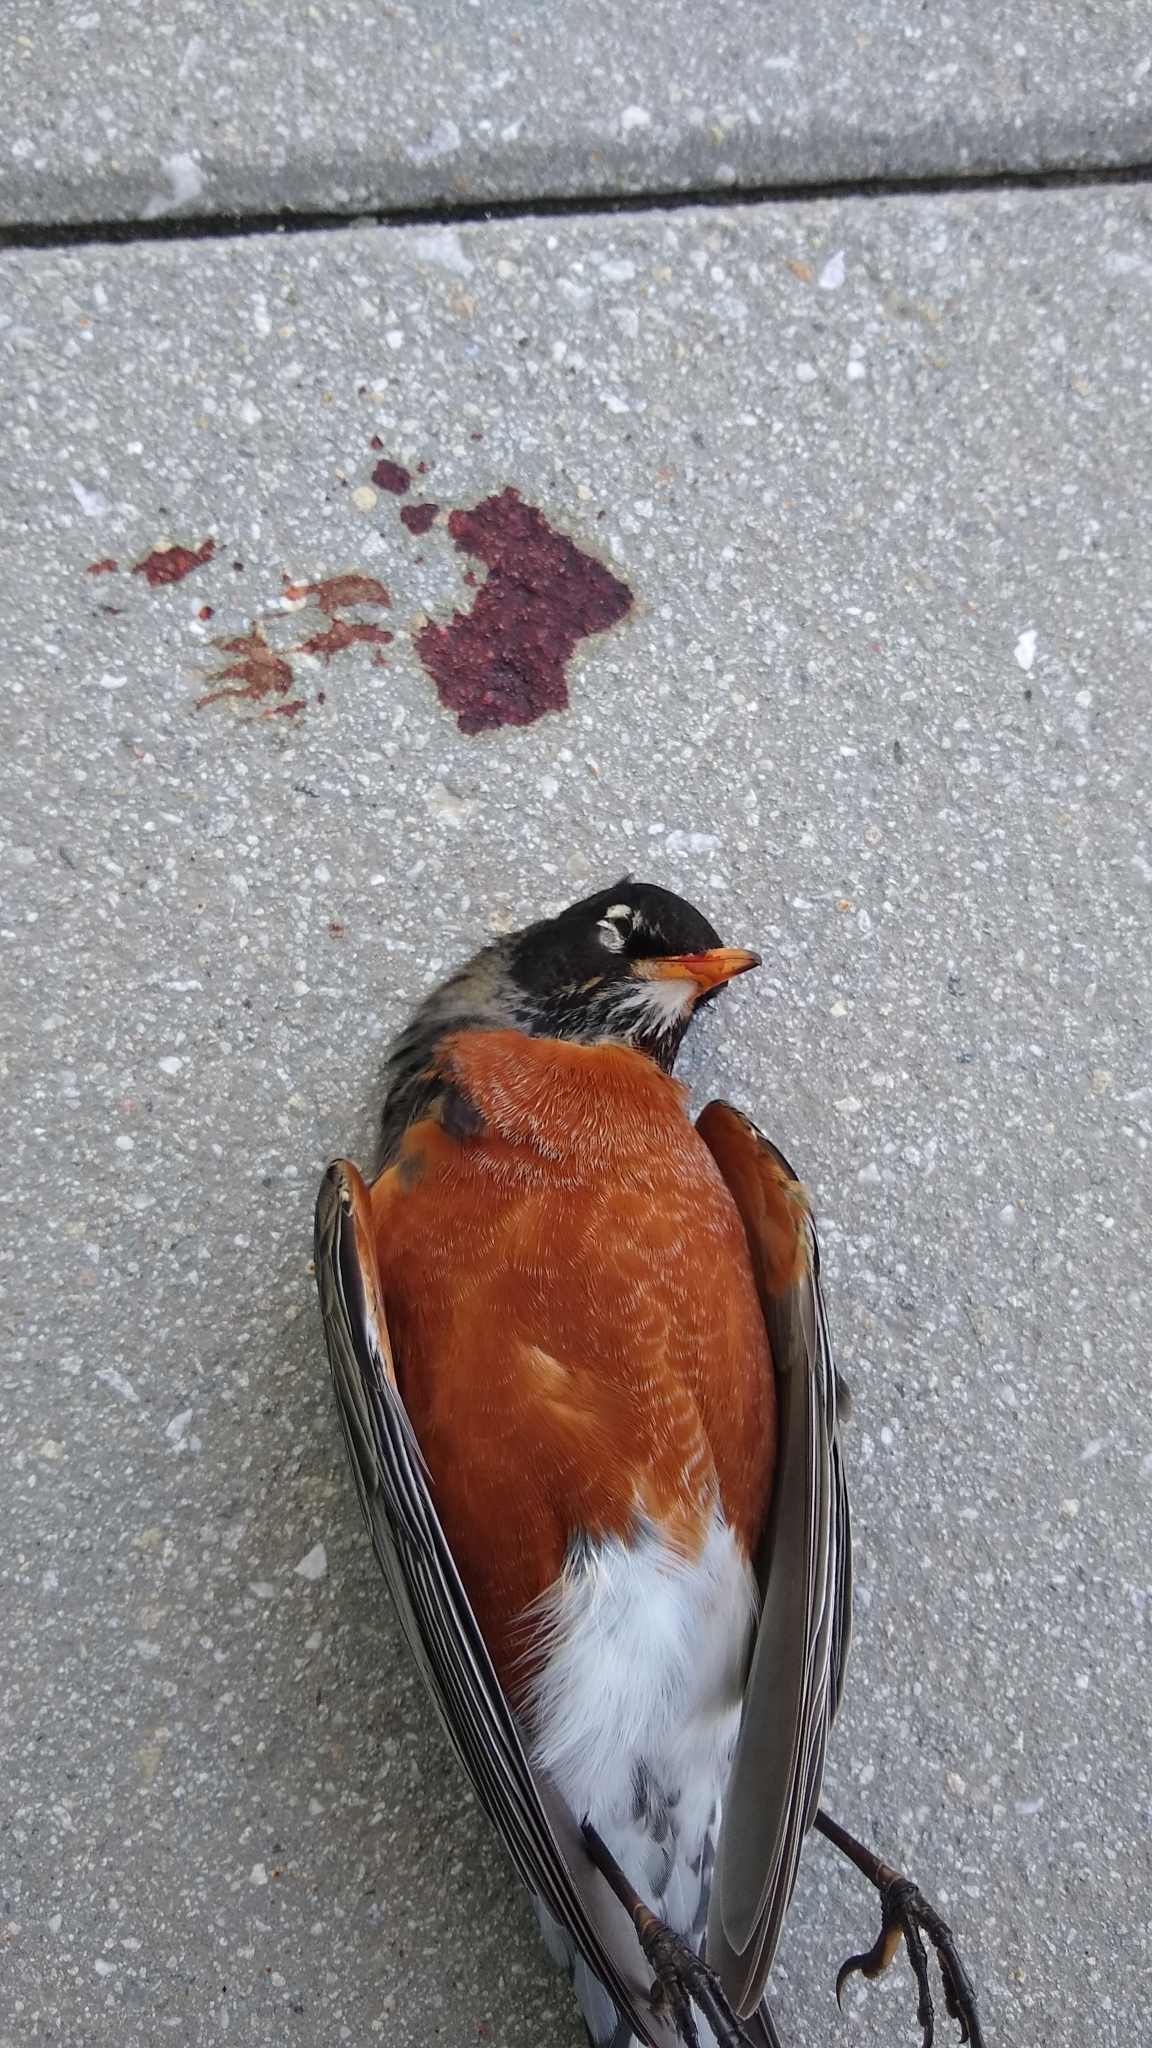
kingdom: Animalia
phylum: Chordata
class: Aves
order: Passeriformes
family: Turdidae
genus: Turdus
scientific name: Turdus migratorius
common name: American robin
